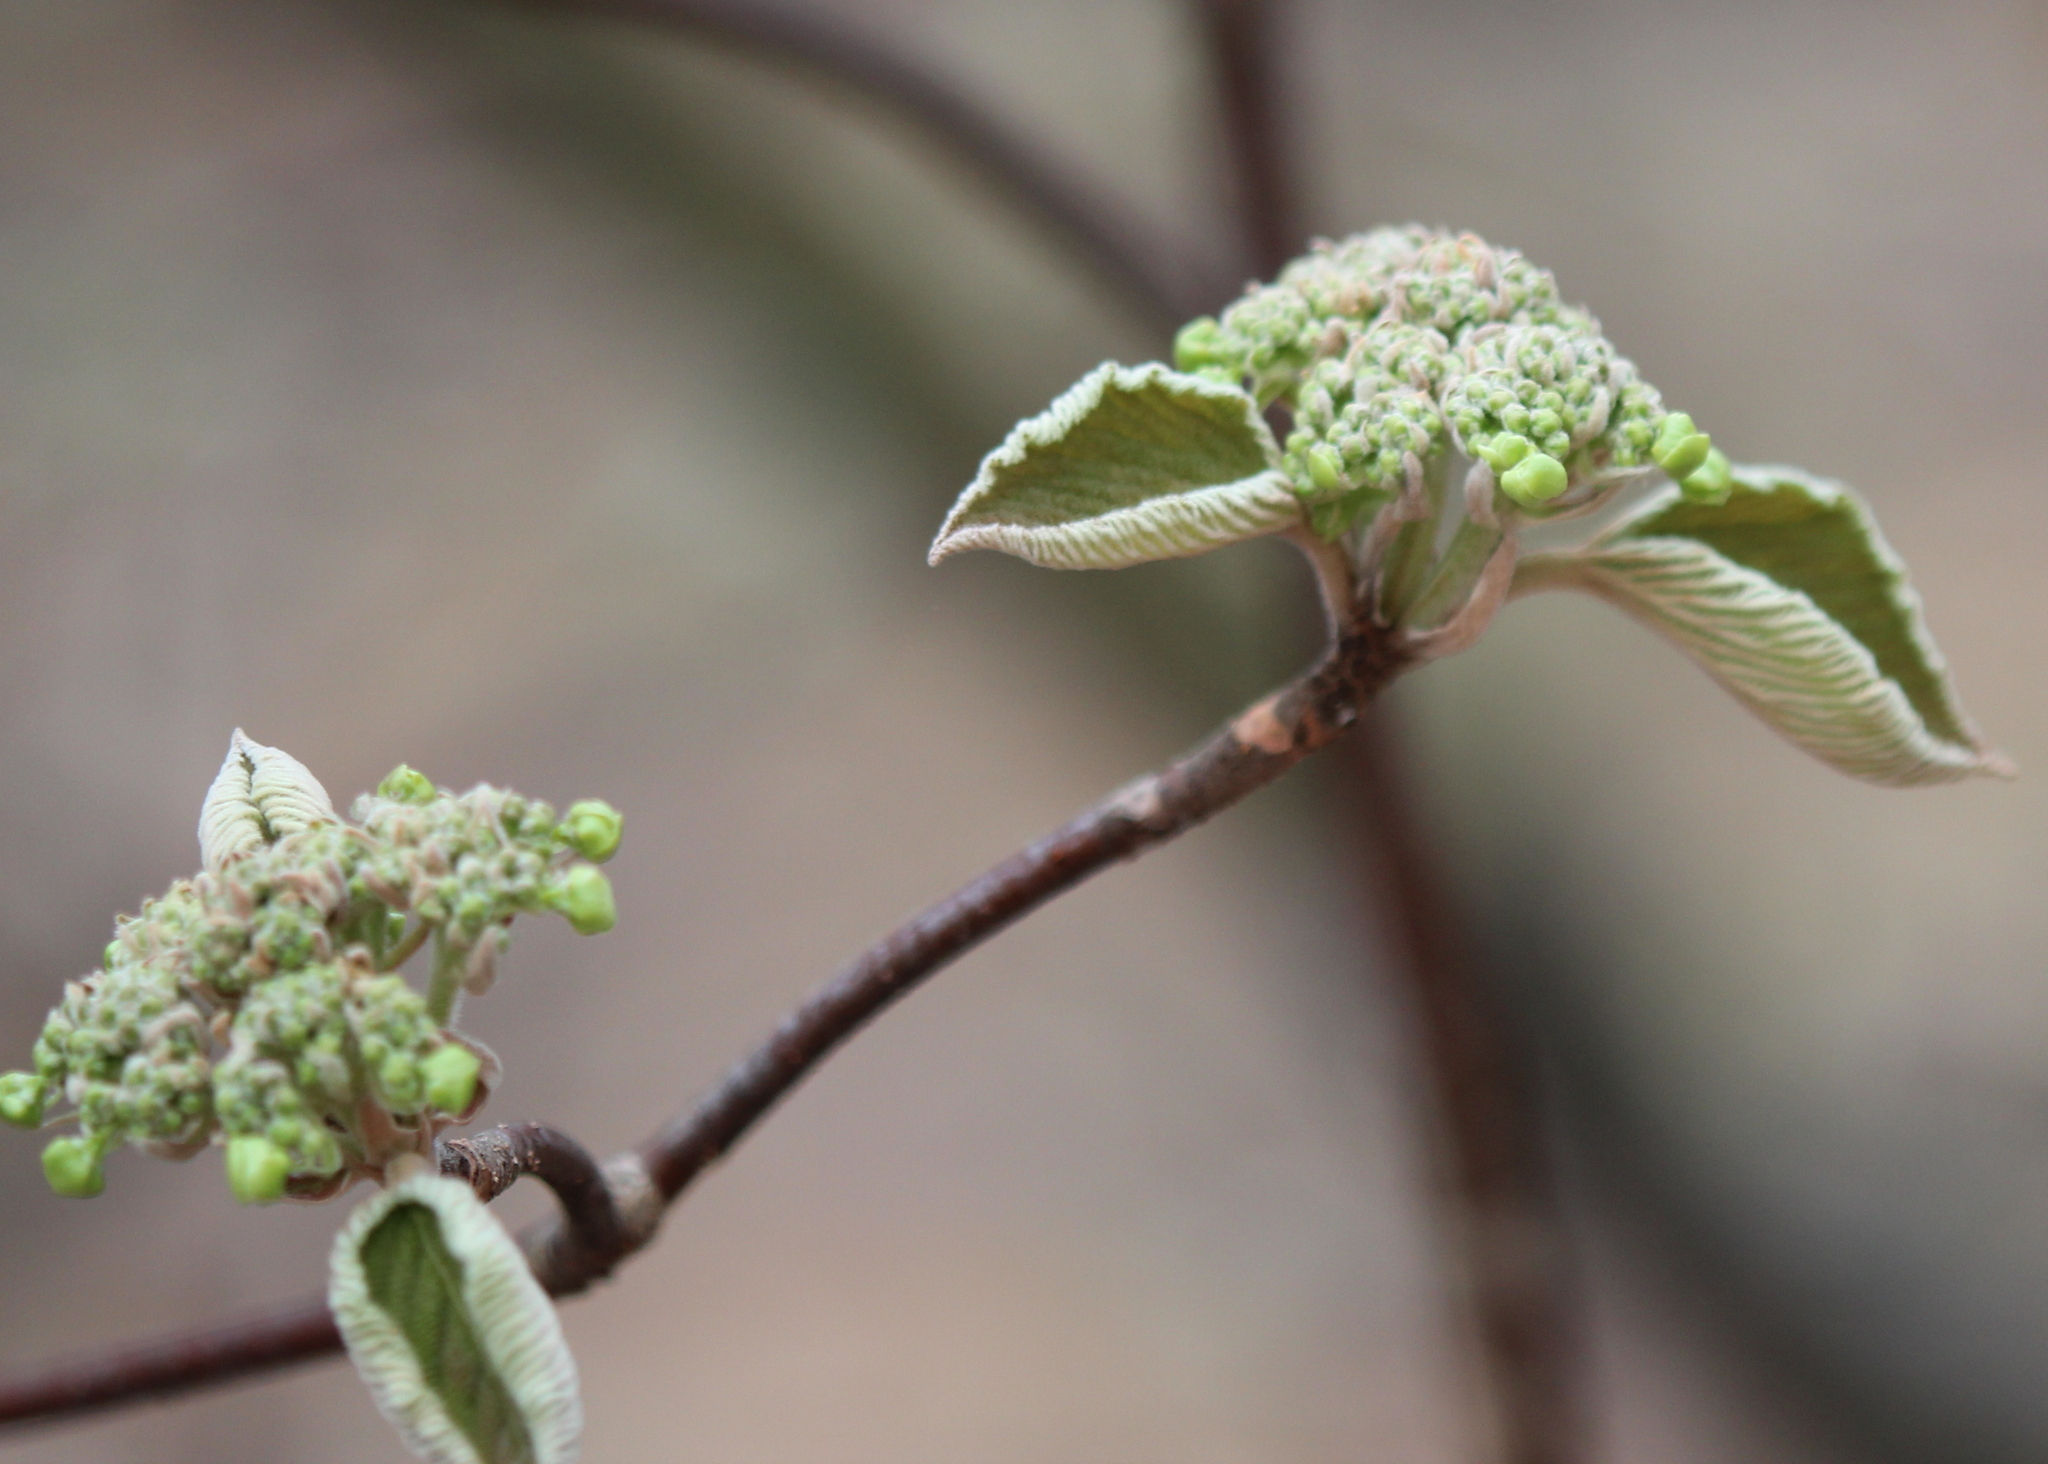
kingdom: Plantae
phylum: Tracheophyta
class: Magnoliopsida
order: Dipsacales
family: Viburnaceae
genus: Viburnum
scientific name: Viburnum lantanoides
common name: Hobblebush
